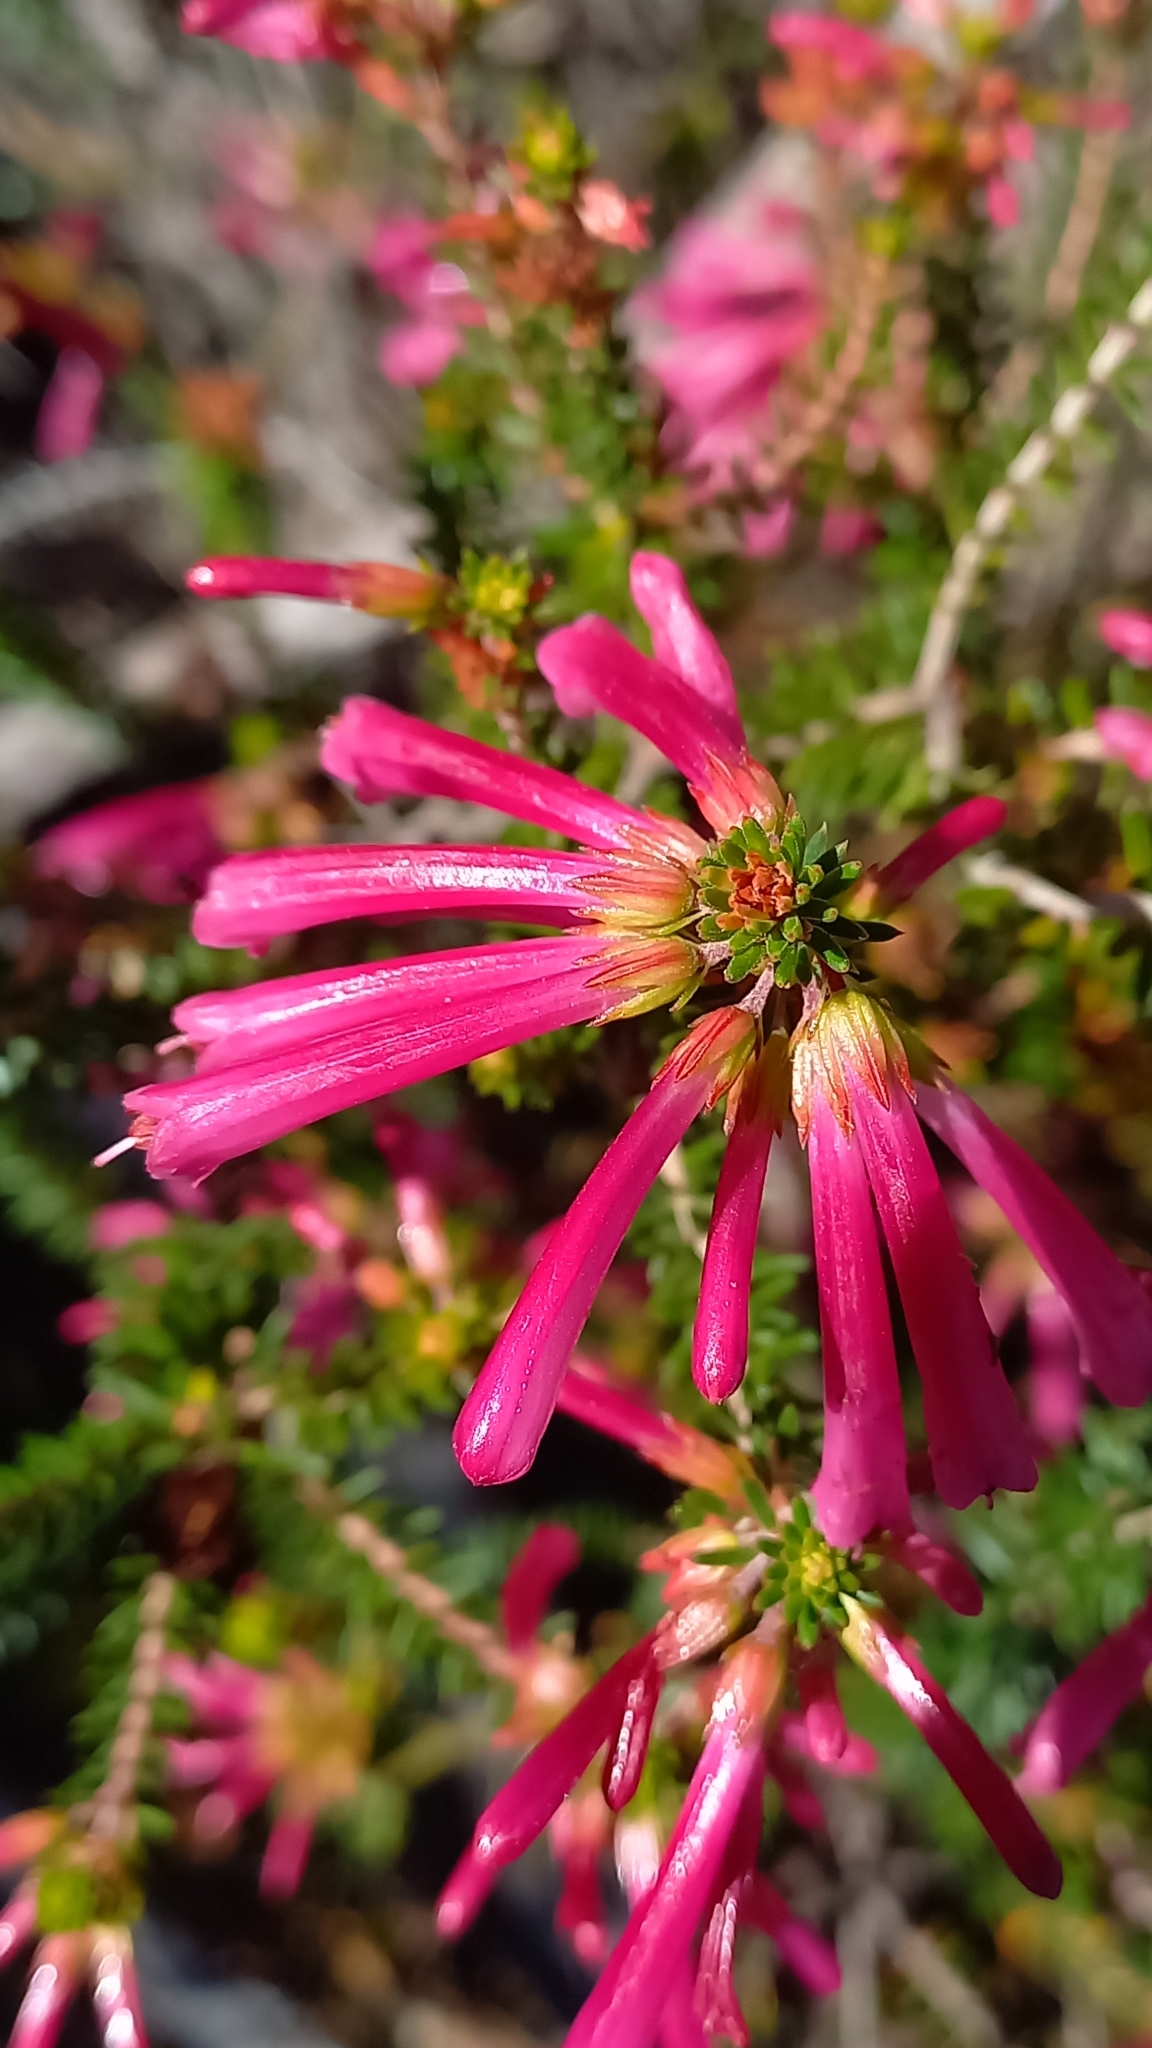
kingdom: Plantae
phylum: Tracheophyta
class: Magnoliopsida
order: Ericales
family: Ericaceae
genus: Erica
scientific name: Erica abietina
